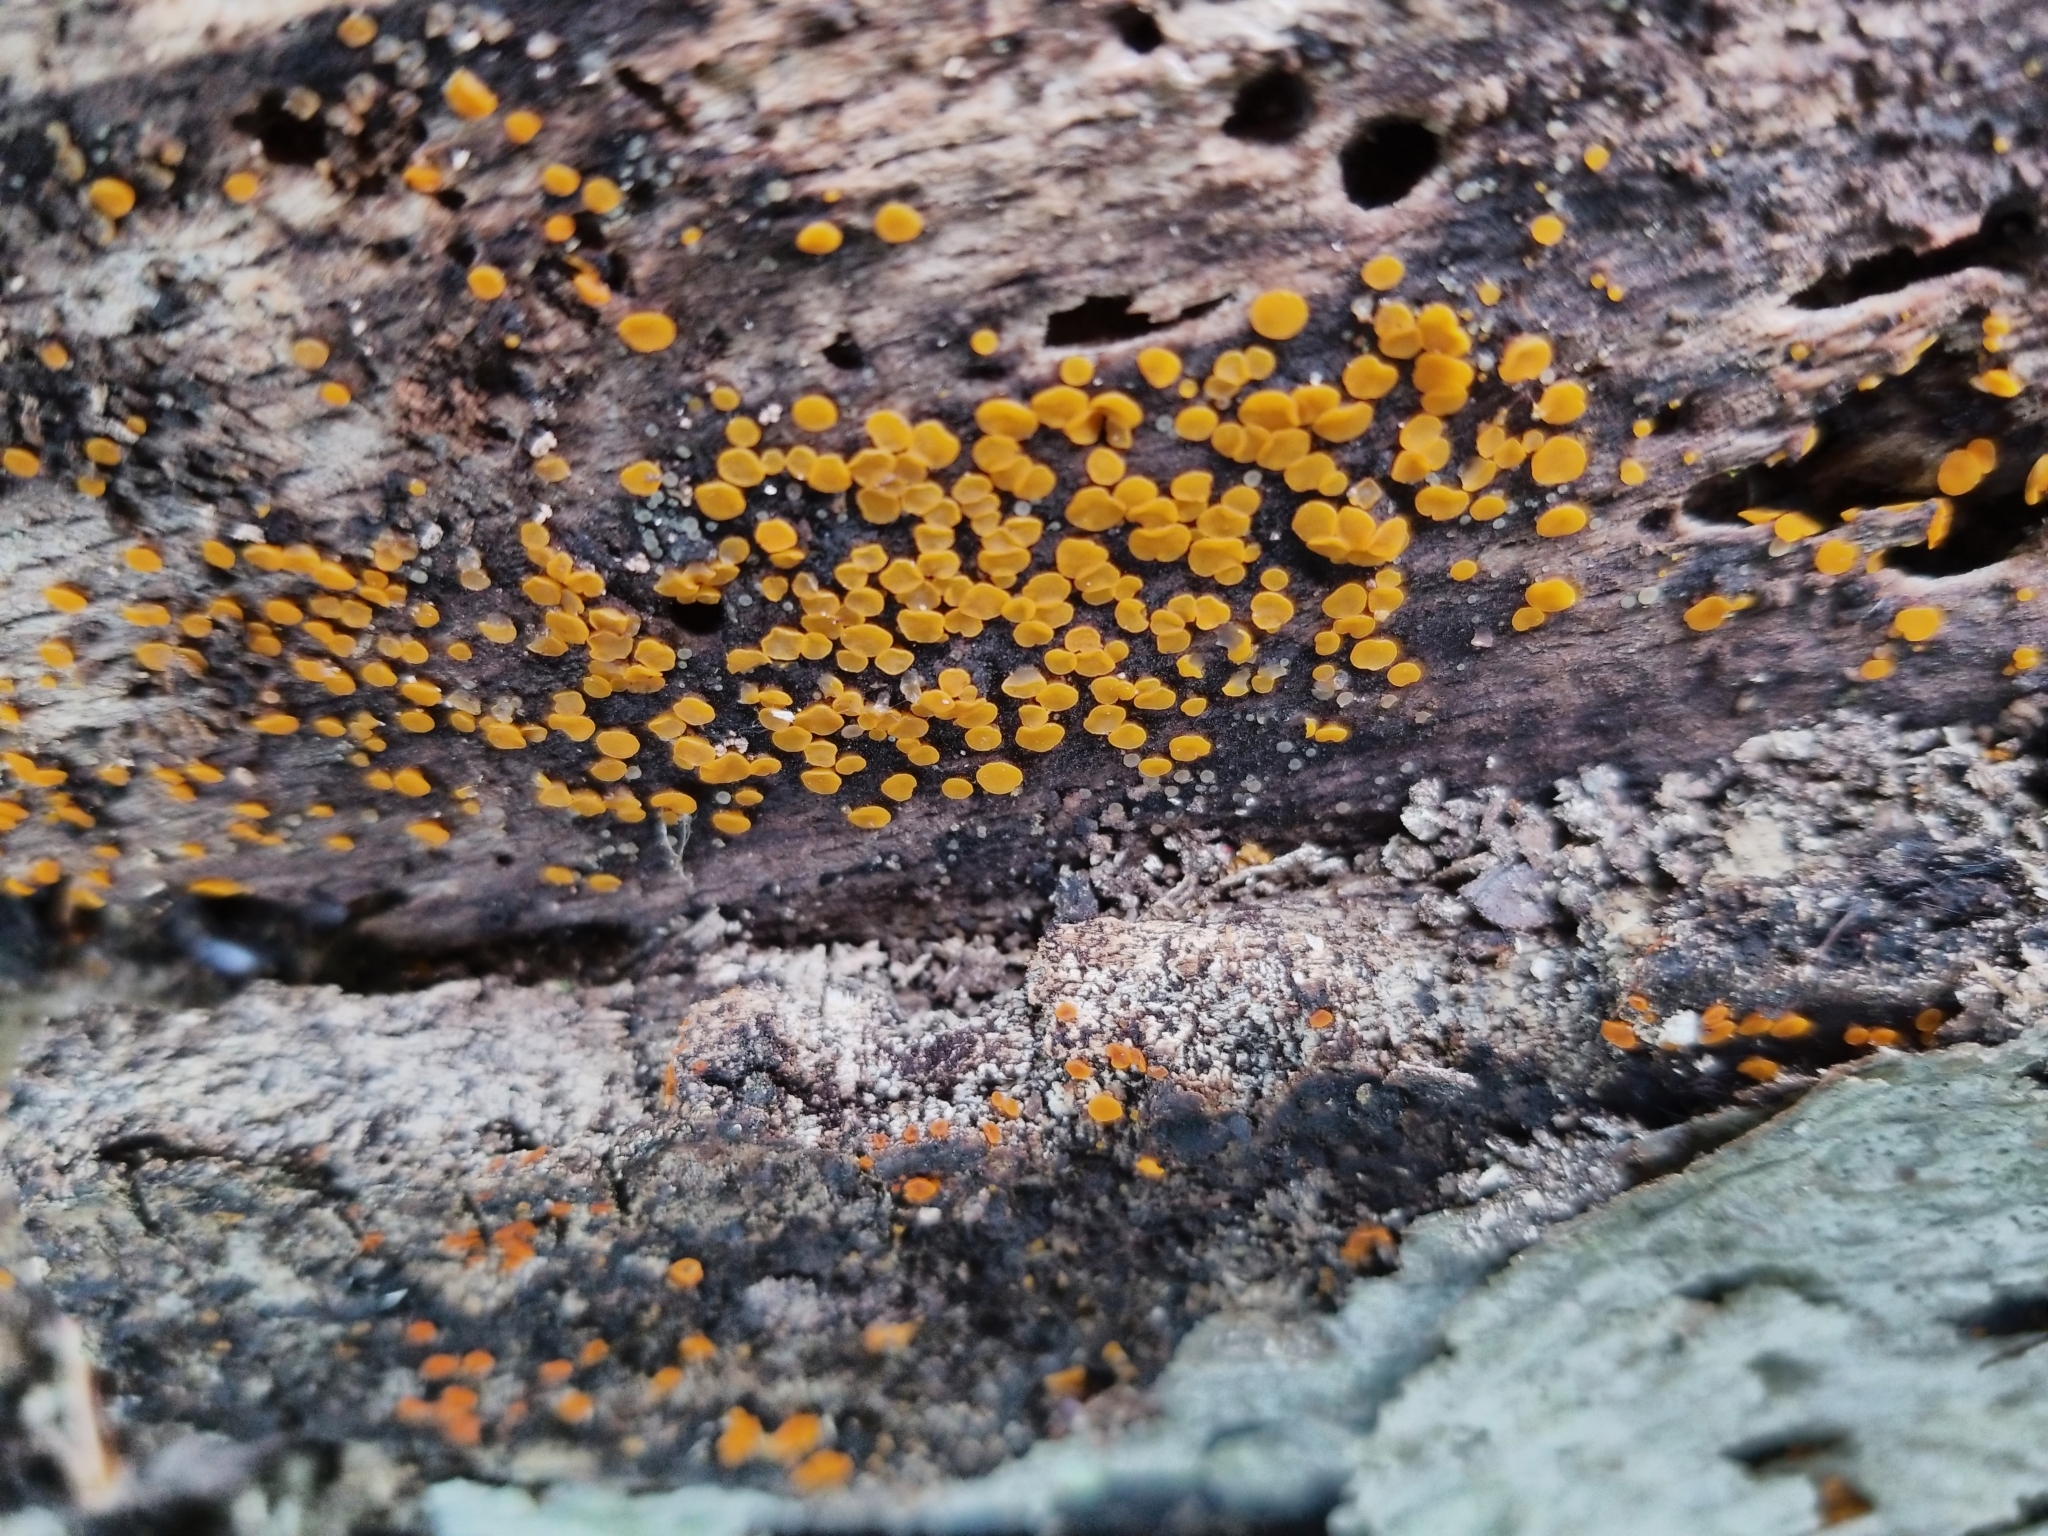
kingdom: Fungi
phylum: Ascomycota
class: Leotiomycetes
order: Helotiales
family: Pezizellaceae
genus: Calycina
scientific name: Calycina citrina
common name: Yellow fairy cups
